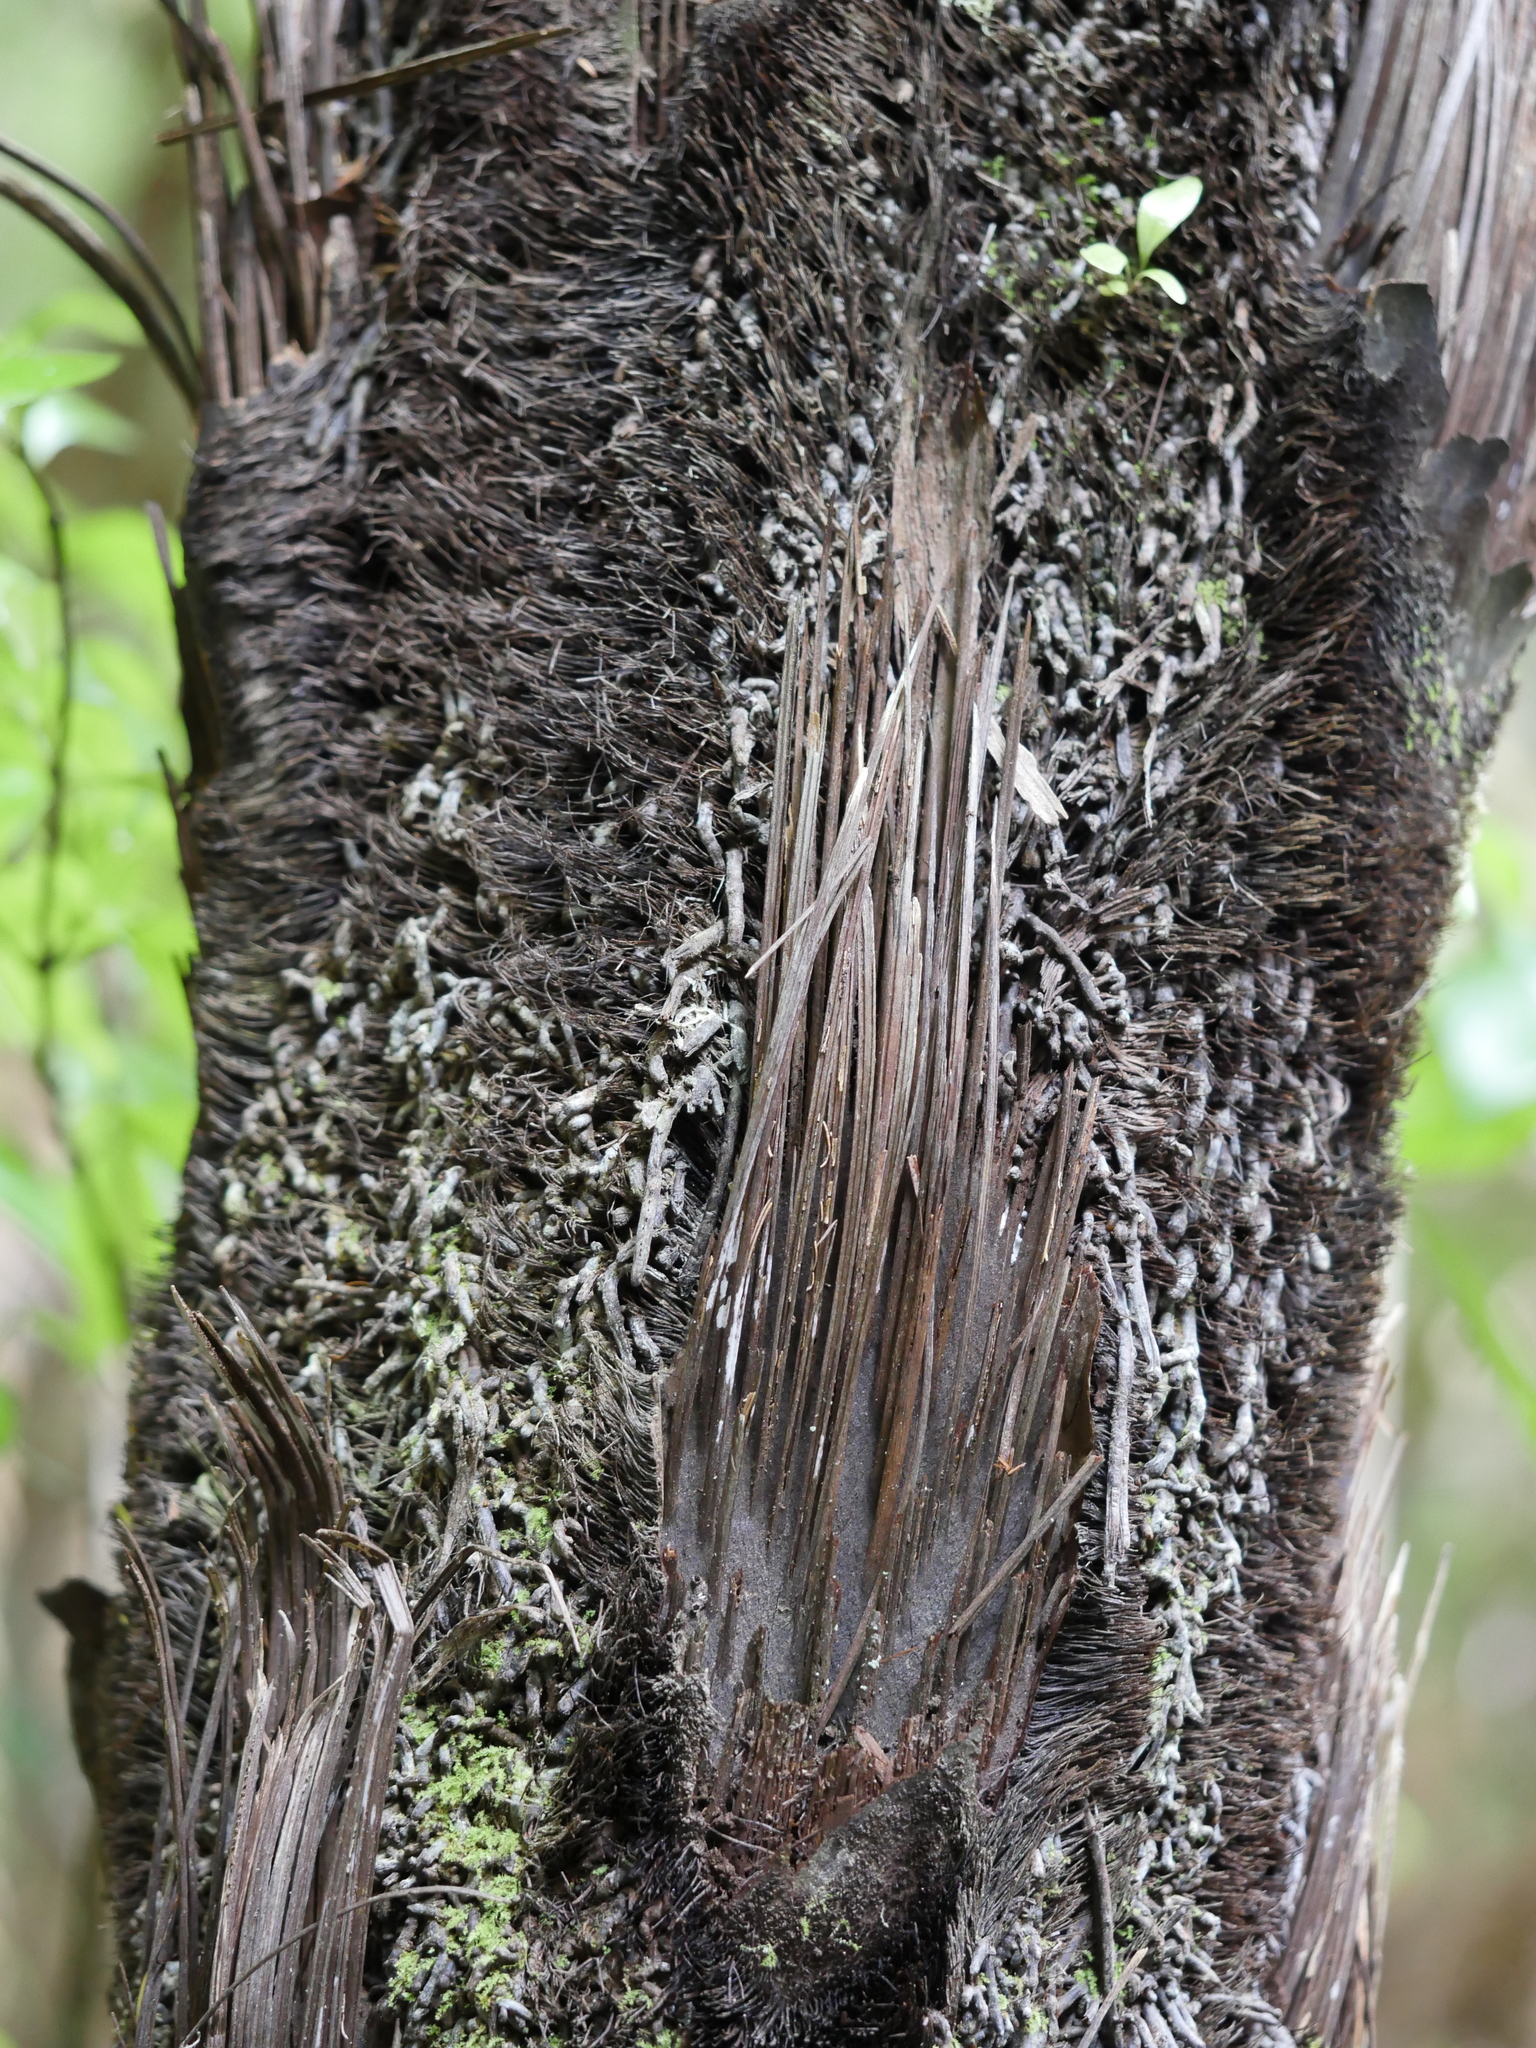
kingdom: Plantae
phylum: Tracheophyta
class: Polypodiopsida
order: Cyatheales
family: Cyatheaceae
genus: Sphaeropteris
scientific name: Sphaeropteris medullaris
